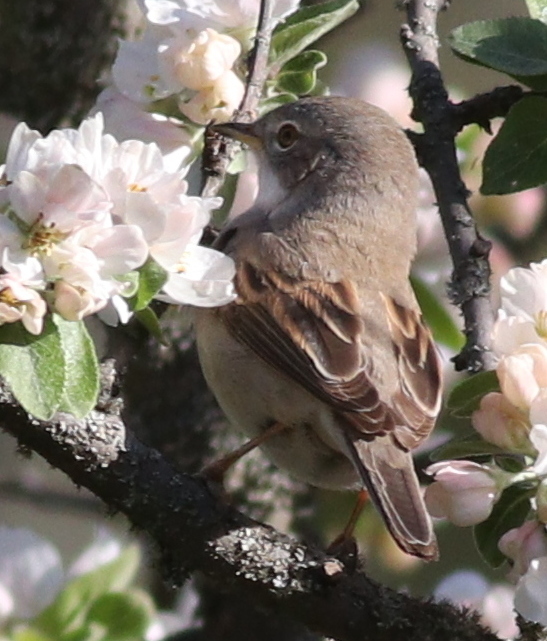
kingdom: Animalia
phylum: Chordata
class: Aves
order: Passeriformes
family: Sylviidae
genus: Sylvia
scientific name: Sylvia communis
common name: Common whitethroat
